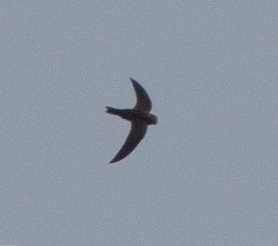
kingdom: Animalia
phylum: Chordata
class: Aves
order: Apodiformes
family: Apodidae
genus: Cypseloides
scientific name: Cypseloides niger
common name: Black swift
